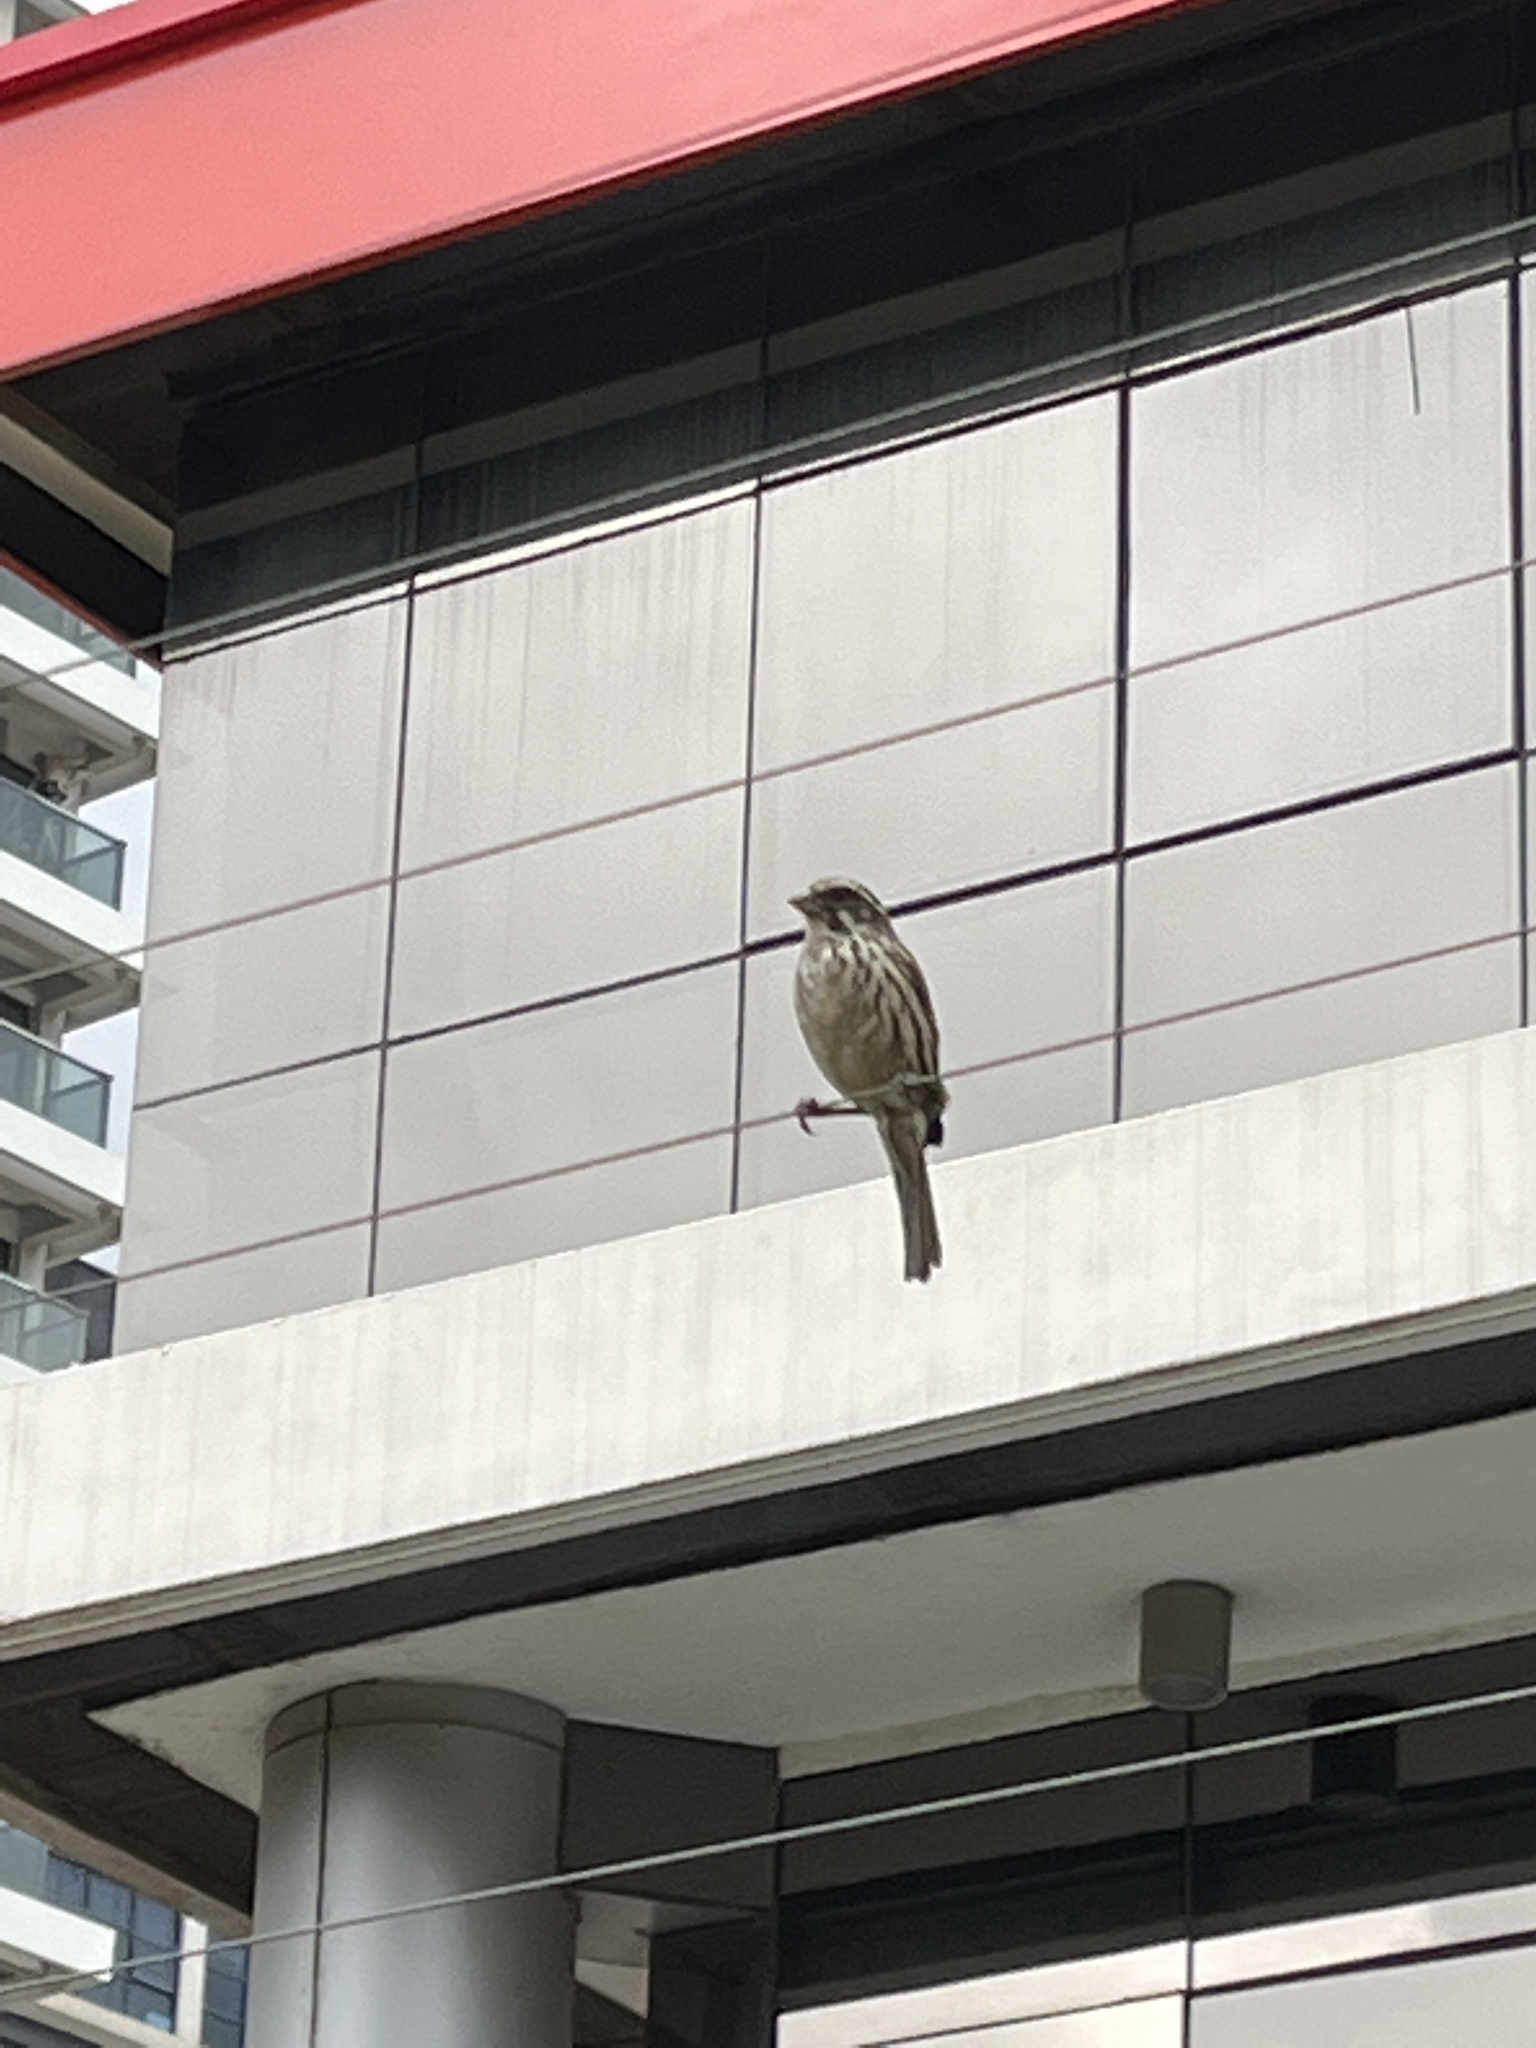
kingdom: Animalia
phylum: Chordata
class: Aves
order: Passeriformes
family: Fringillidae
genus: Crithagra
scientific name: Crithagra striolata
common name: Streaky seedeater
